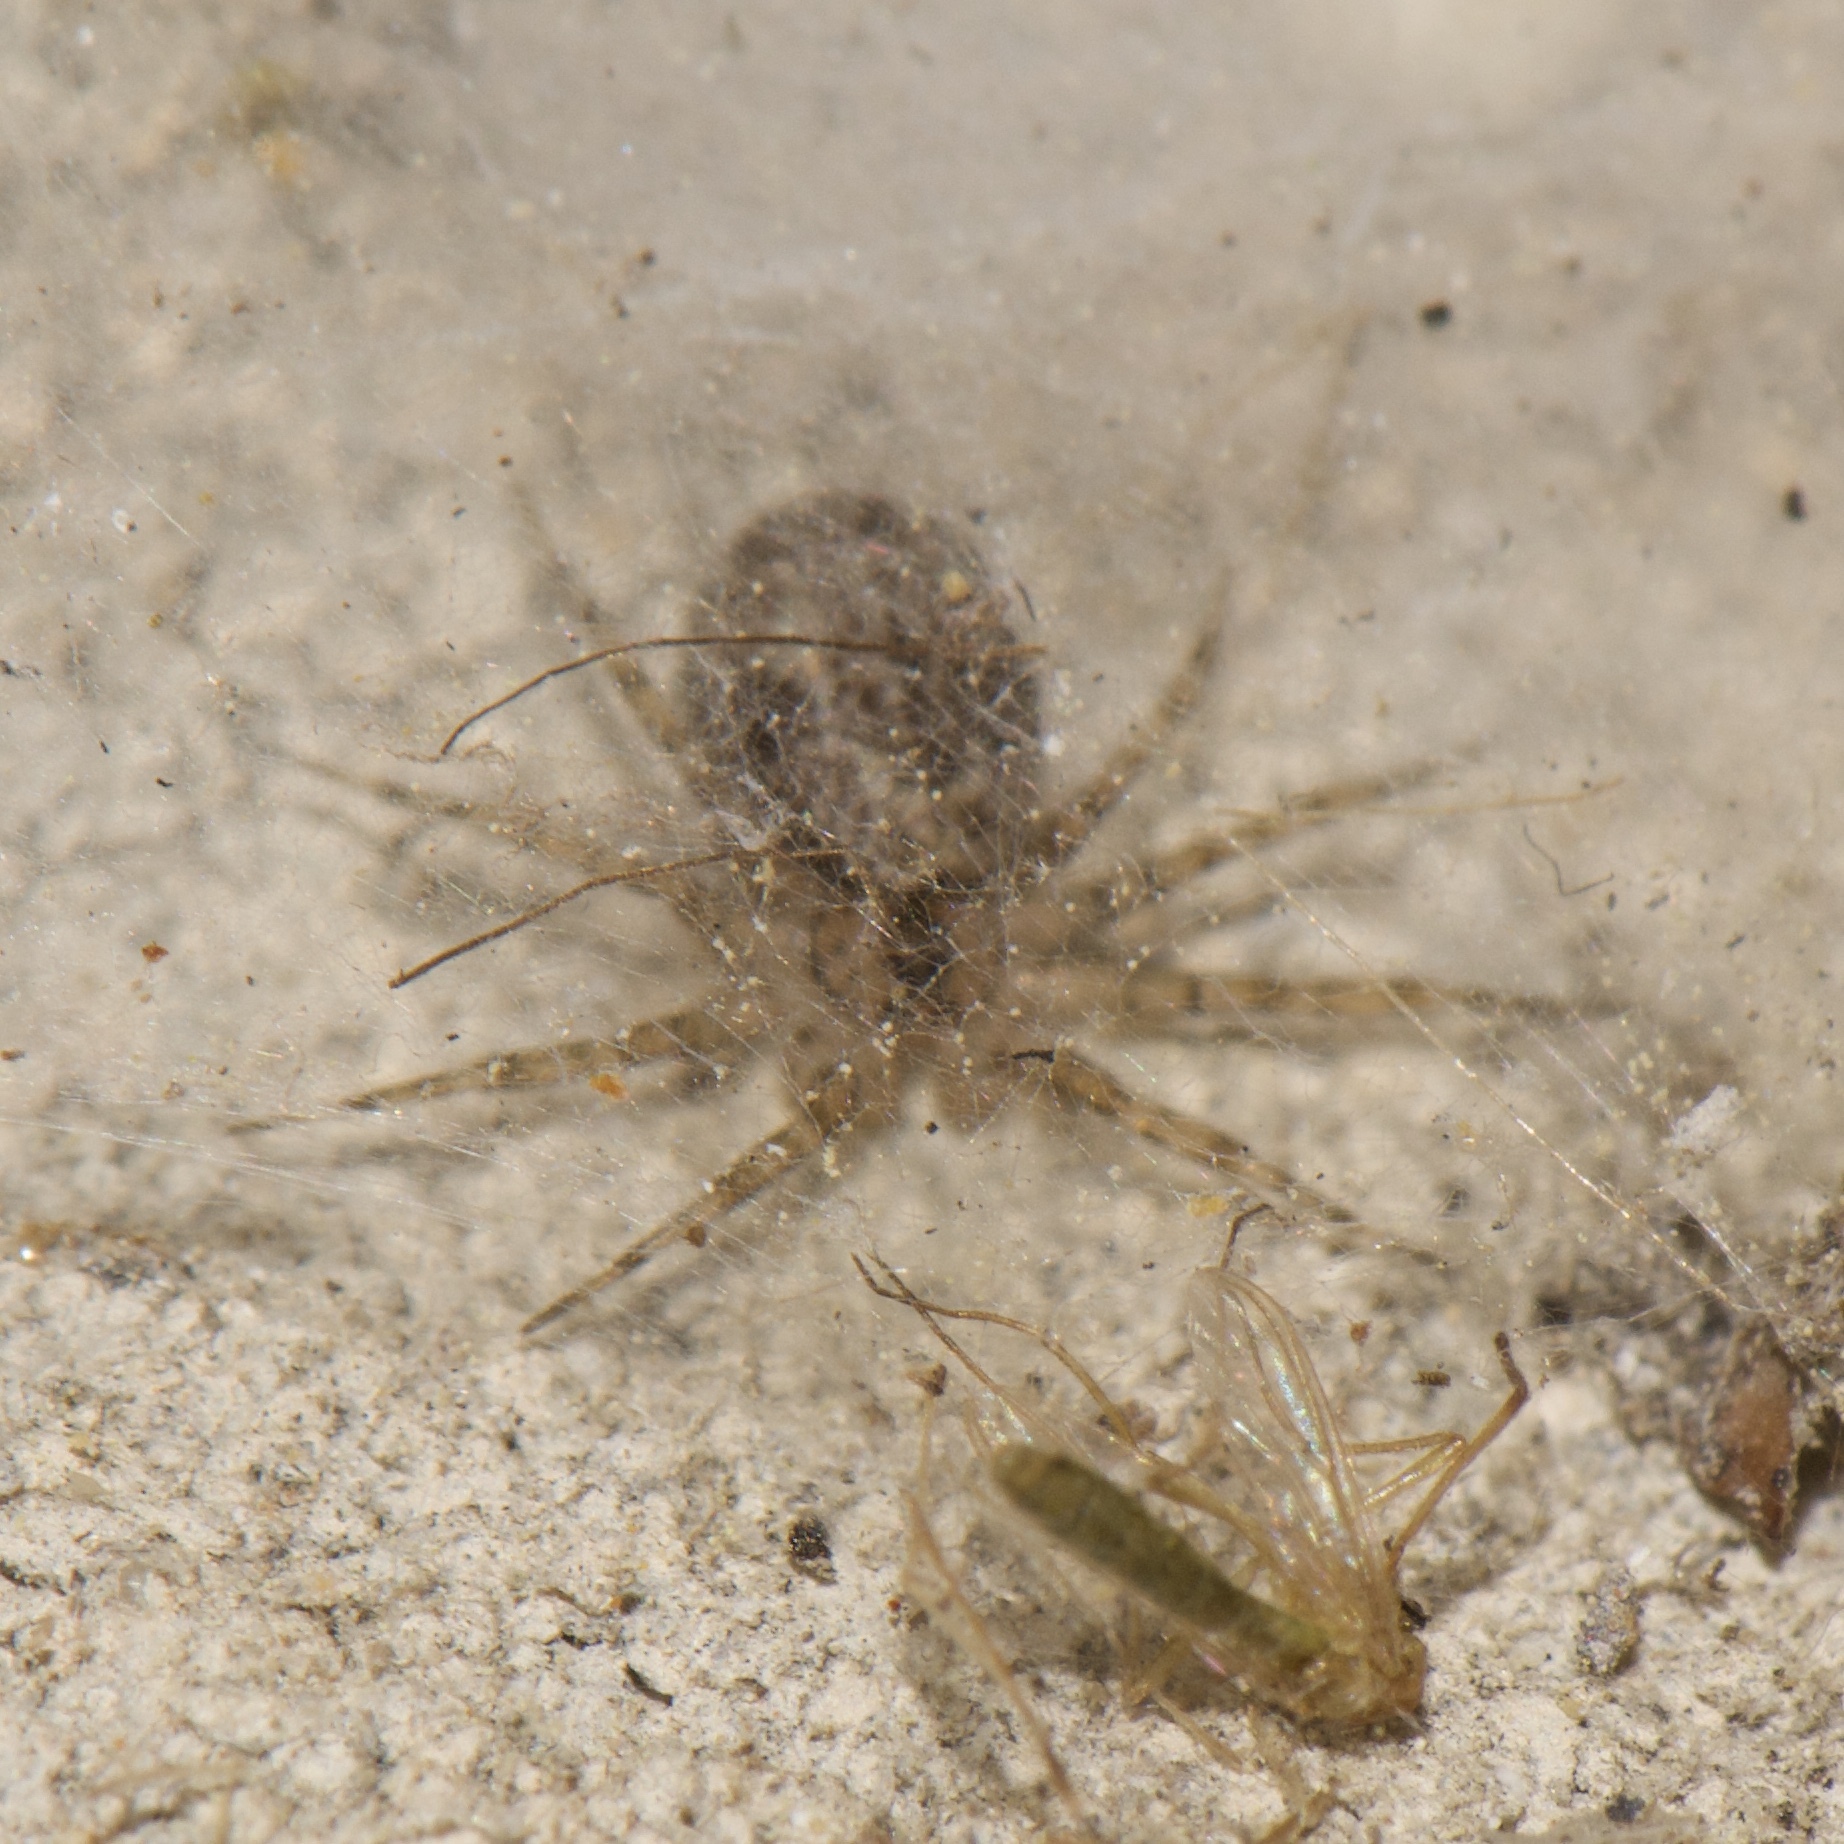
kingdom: Animalia
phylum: Arthropoda
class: Arachnida
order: Araneae
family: Oecobiidae
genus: Oecobius
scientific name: Oecobius navus
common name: Flatmesh weaver
